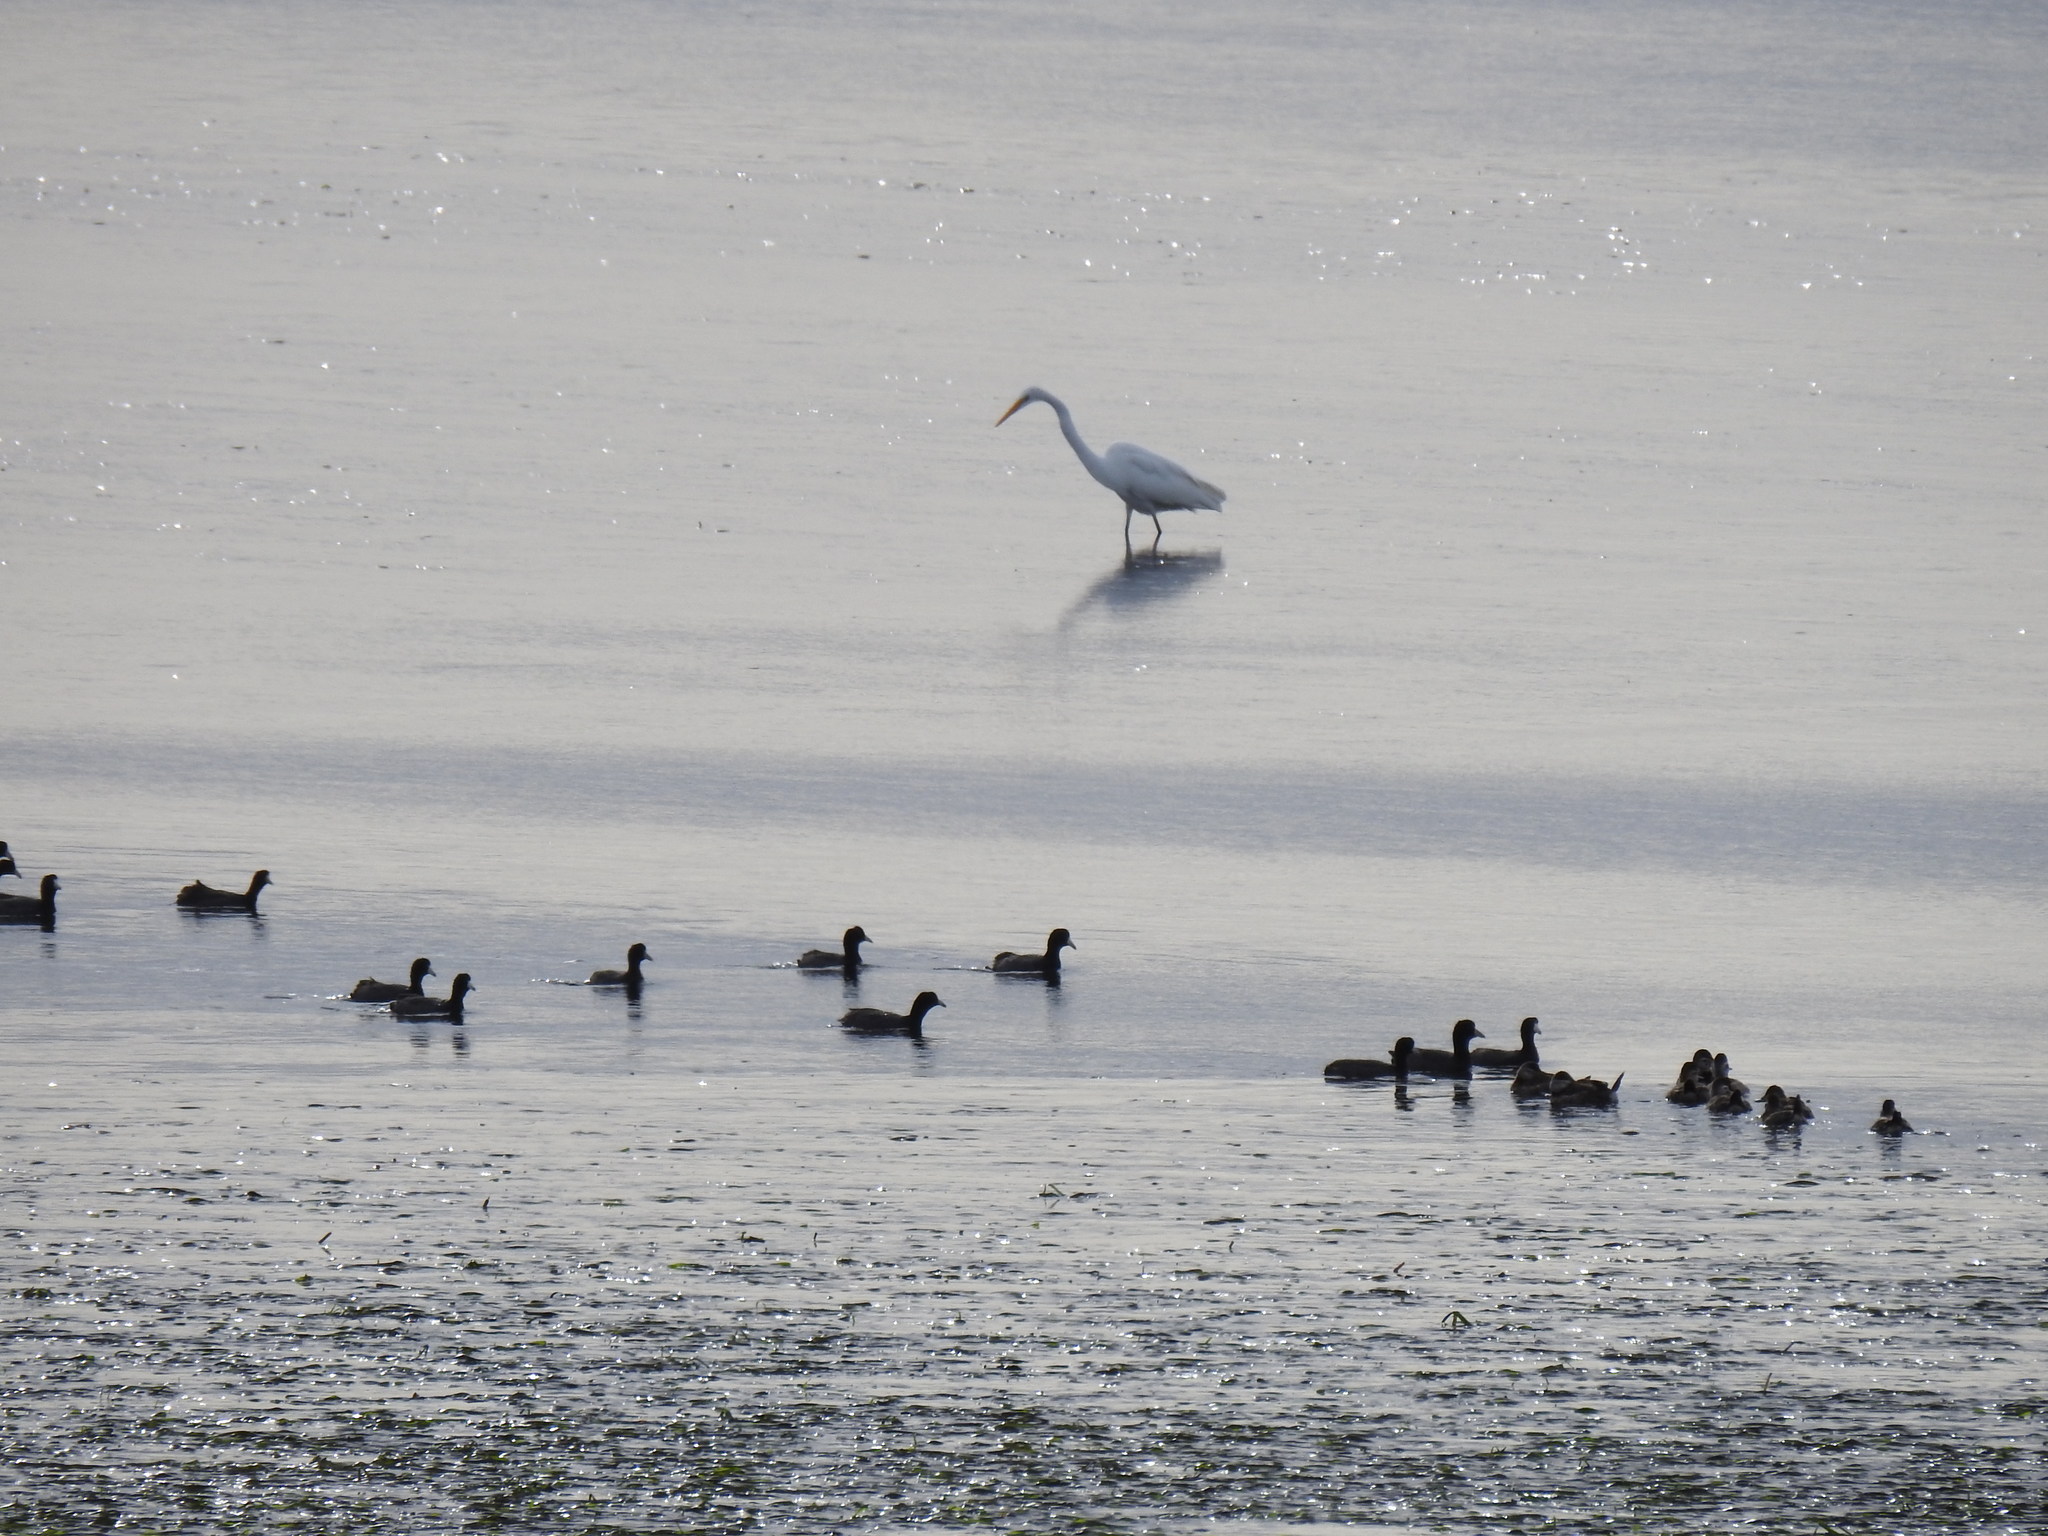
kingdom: Animalia
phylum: Chordata
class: Aves
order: Pelecaniformes
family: Ardeidae
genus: Ardea
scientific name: Ardea alba
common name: Great egret
